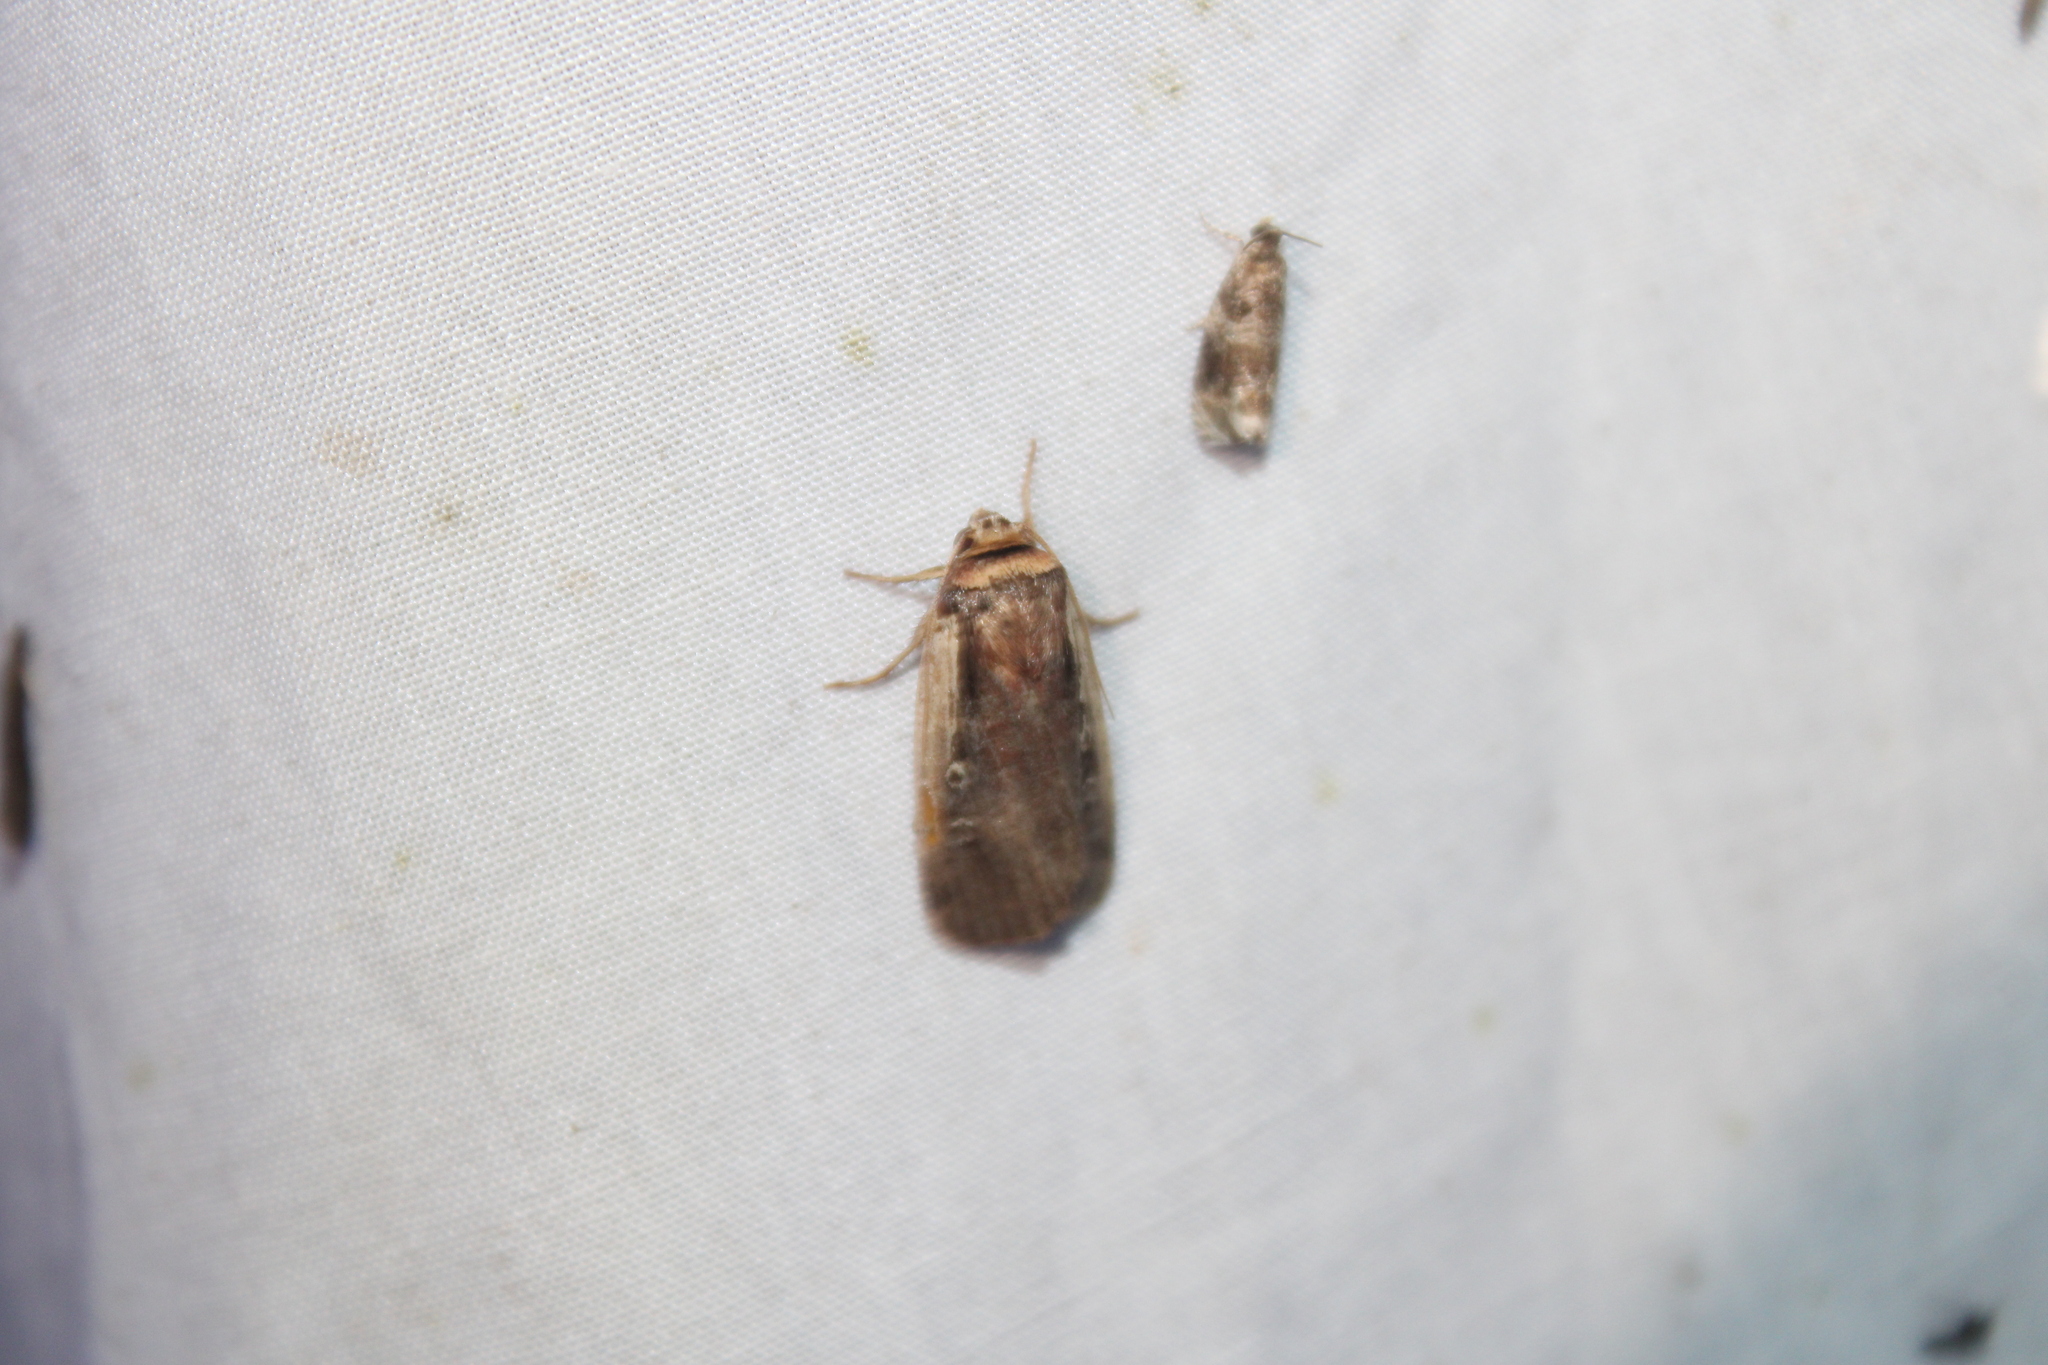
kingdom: Animalia
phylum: Arthropoda
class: Insecta
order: Lepidoptera
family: Noctuidae
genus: Ochropleura
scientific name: Ochropleura implecta
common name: Flame-shouldered dart
